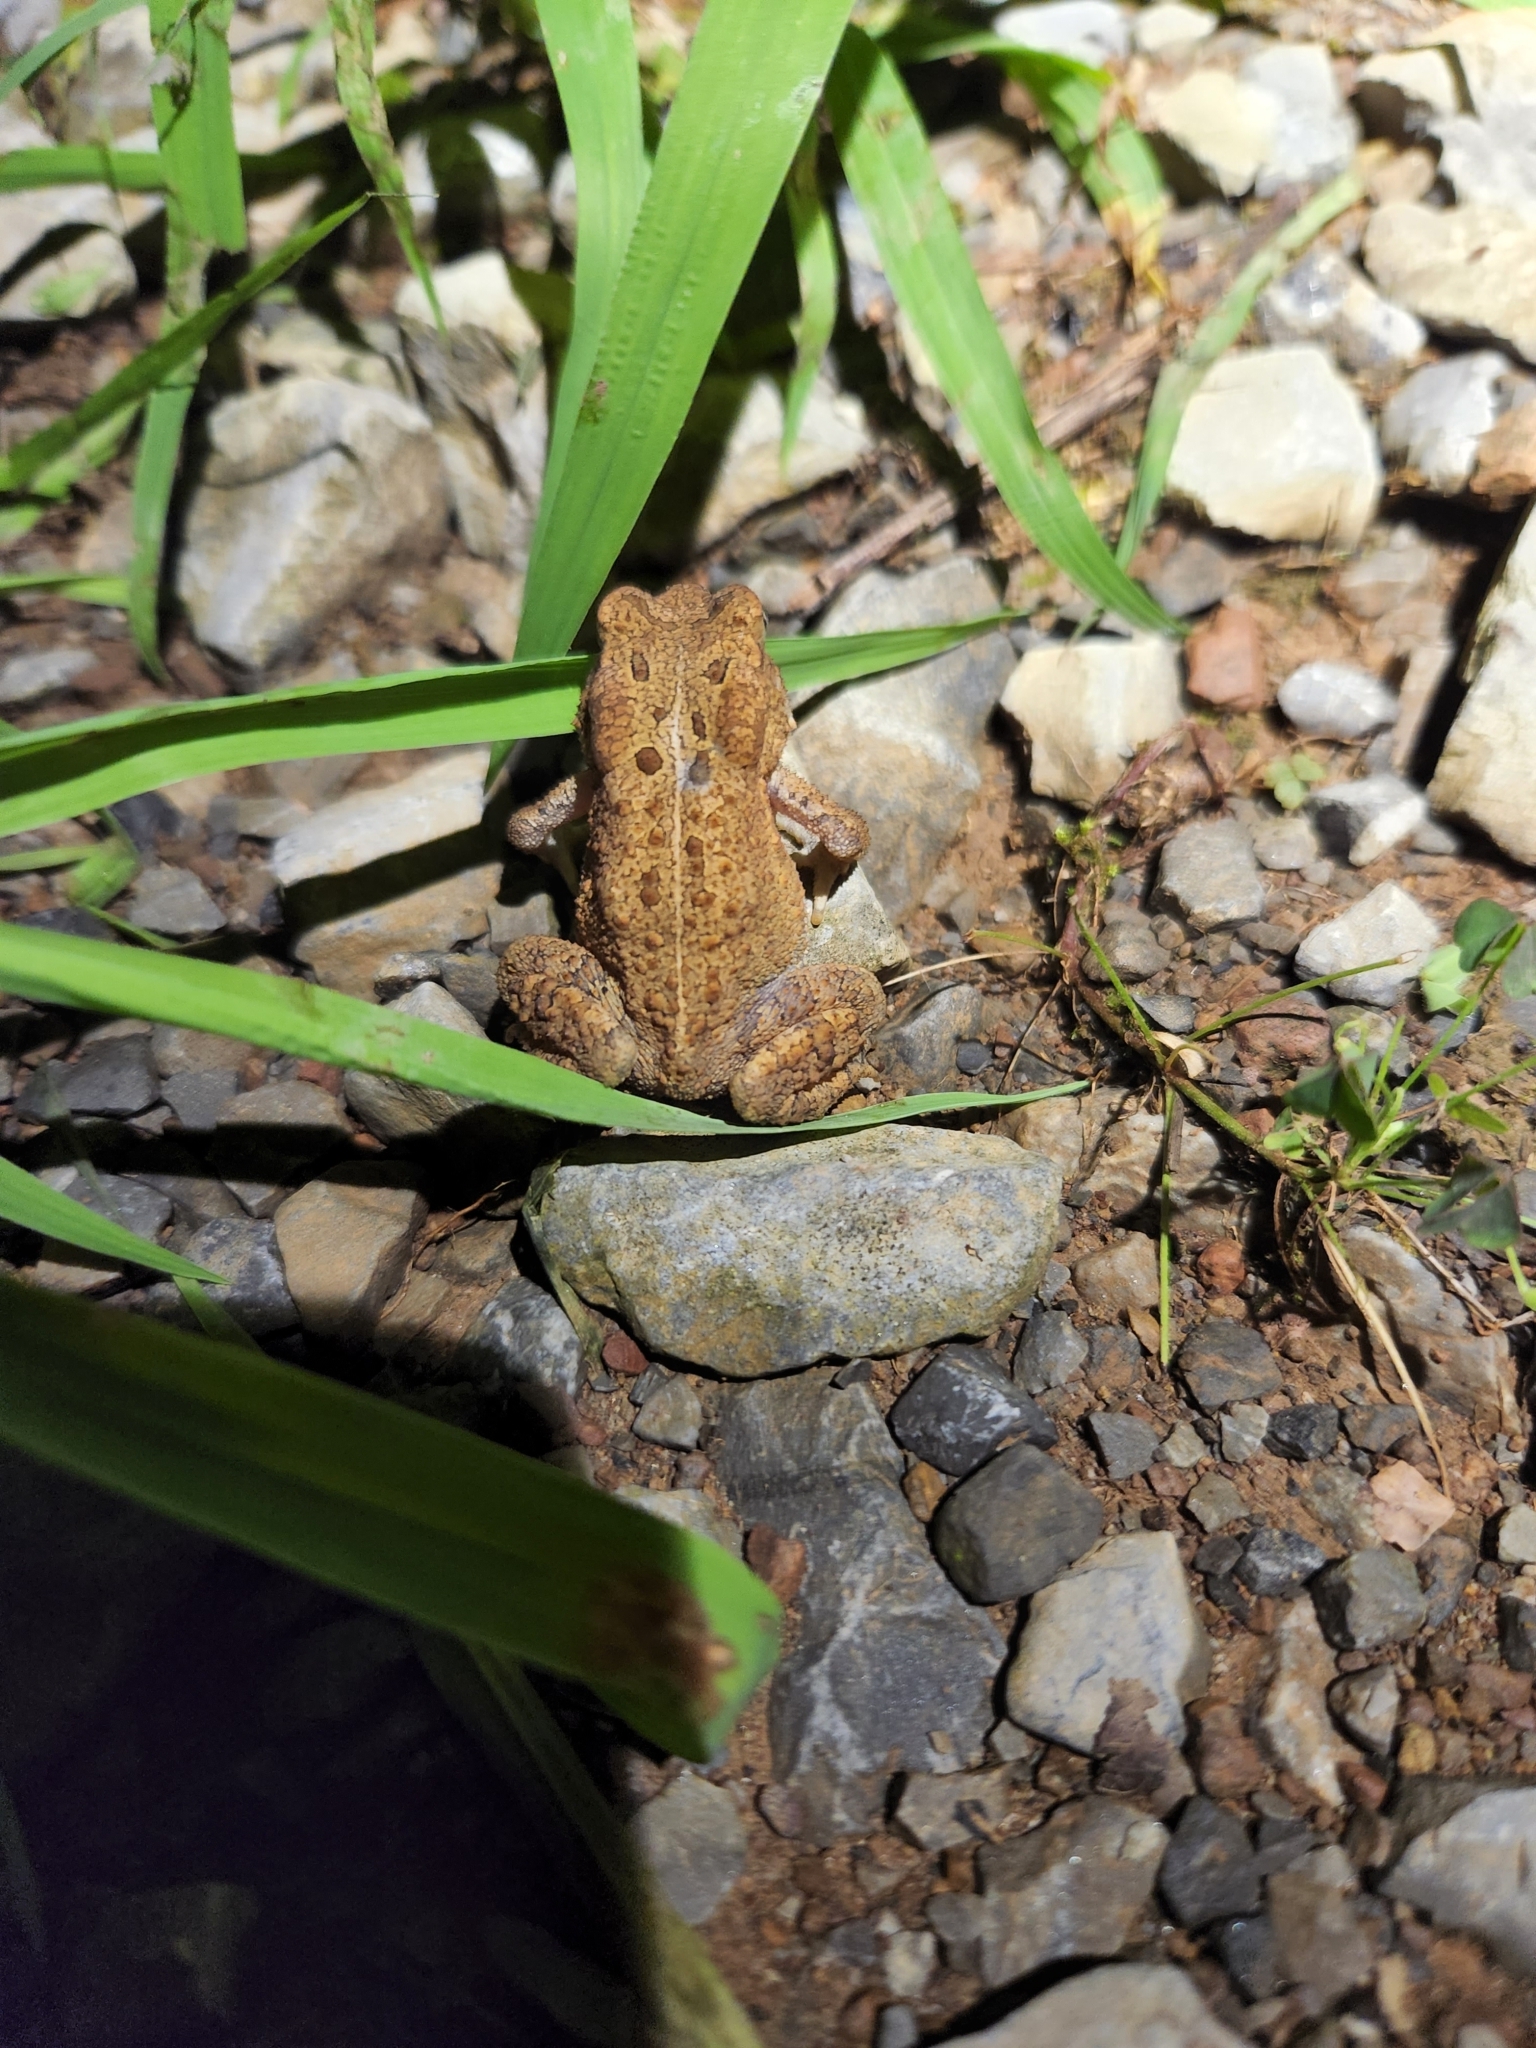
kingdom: Animalia
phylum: Chordata
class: Amphibia
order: Anura
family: Bufonidae
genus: Anaxyrus
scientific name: Anaxyrus americanus
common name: American toad
